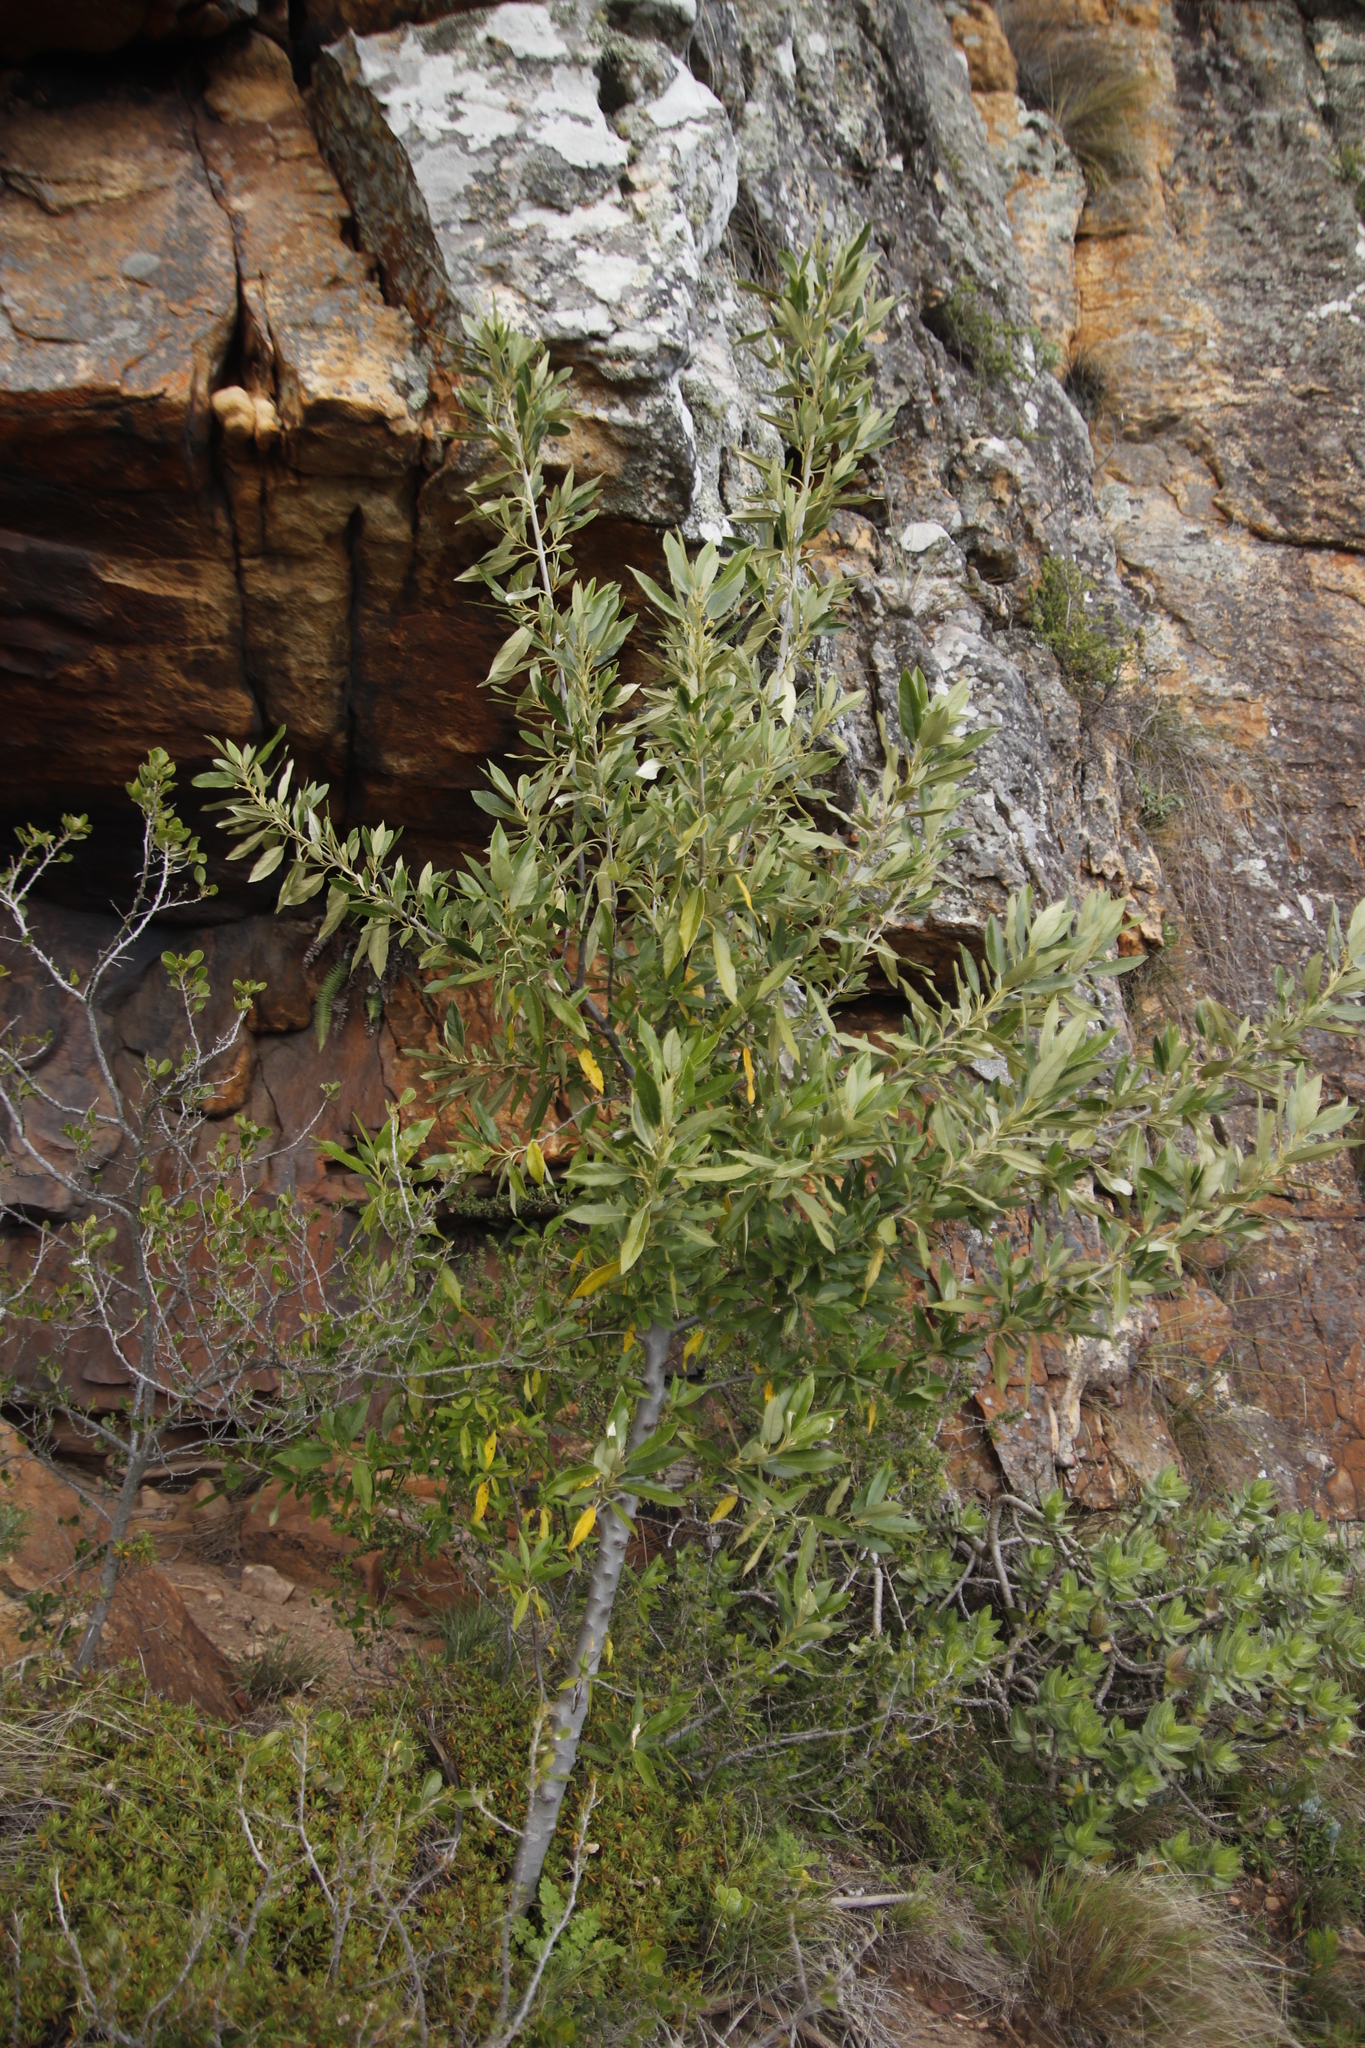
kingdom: Plantae
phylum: Tracheophyta
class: Magnoliopsida
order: Malpighiales
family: Achariaceae
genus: Kiggelaria
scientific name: Kiggelaria africana
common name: Wild peach
